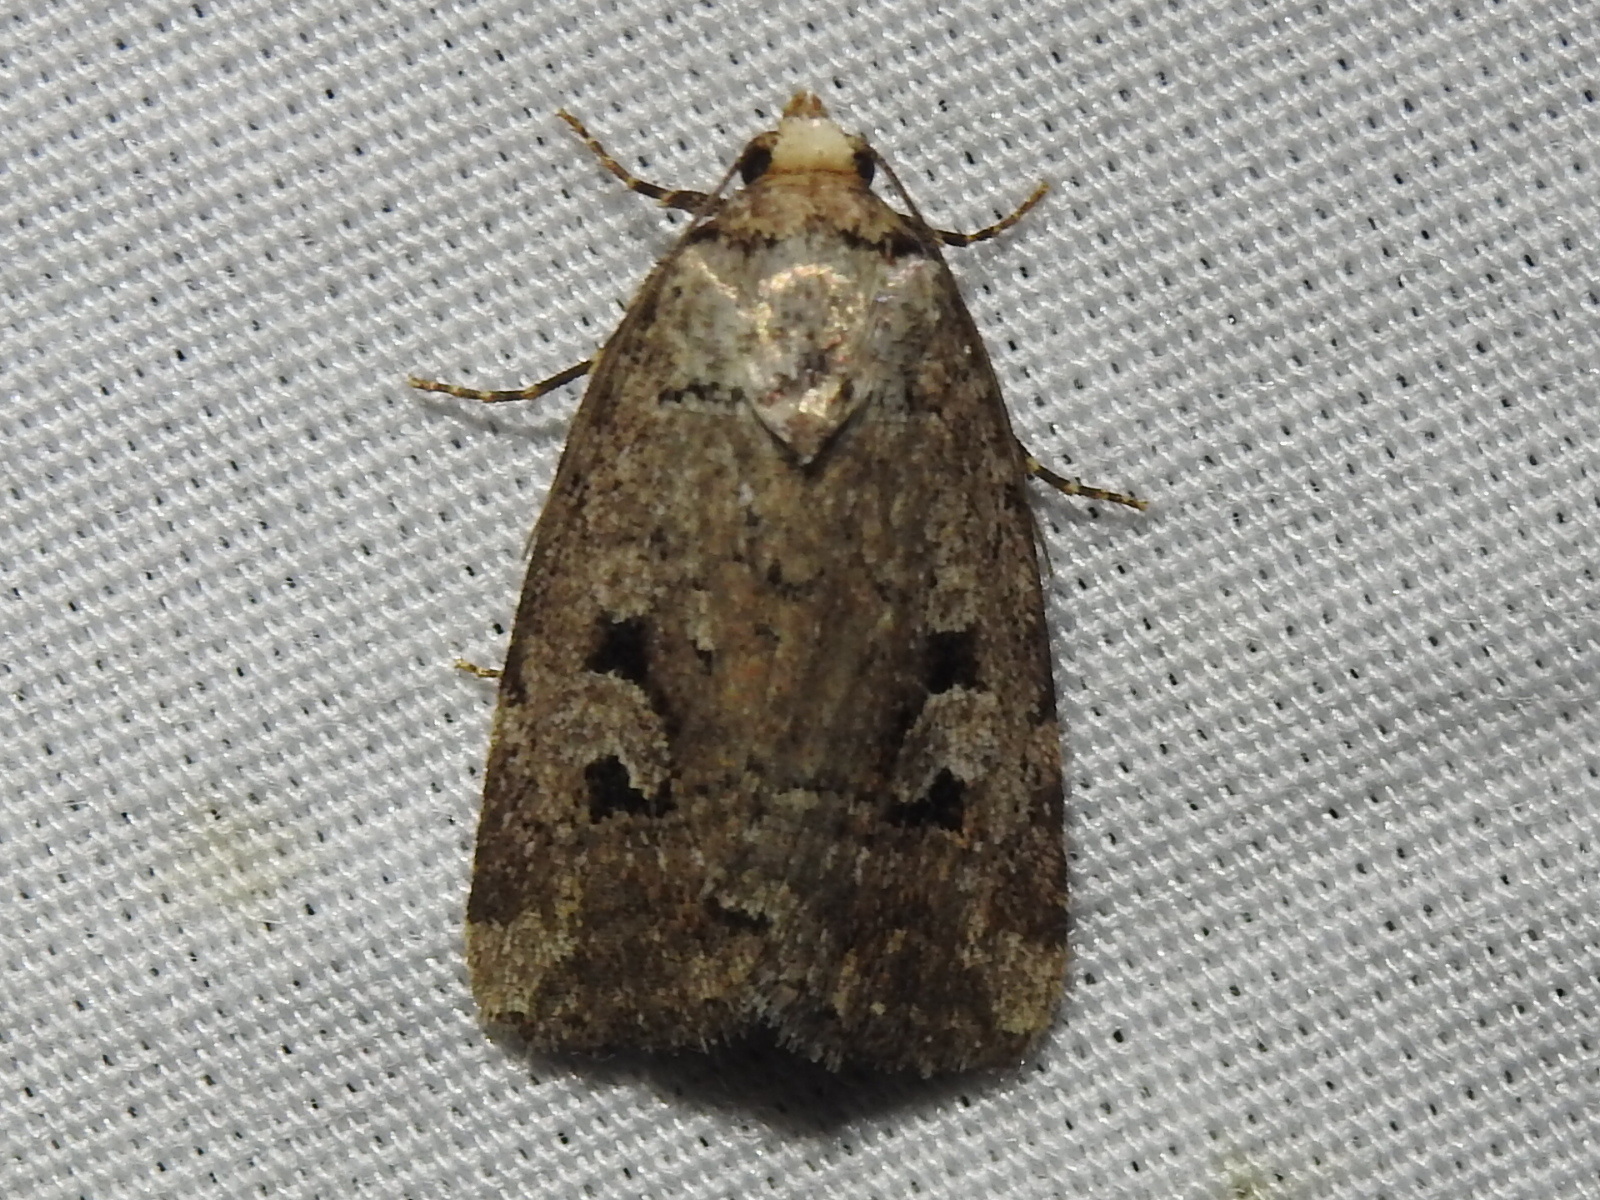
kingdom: Animalia
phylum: Arthropoda
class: Insecta
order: Lepidoptera
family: Noctuidae
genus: Elaphria
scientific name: Elaphria festivoides
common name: Festive midget
